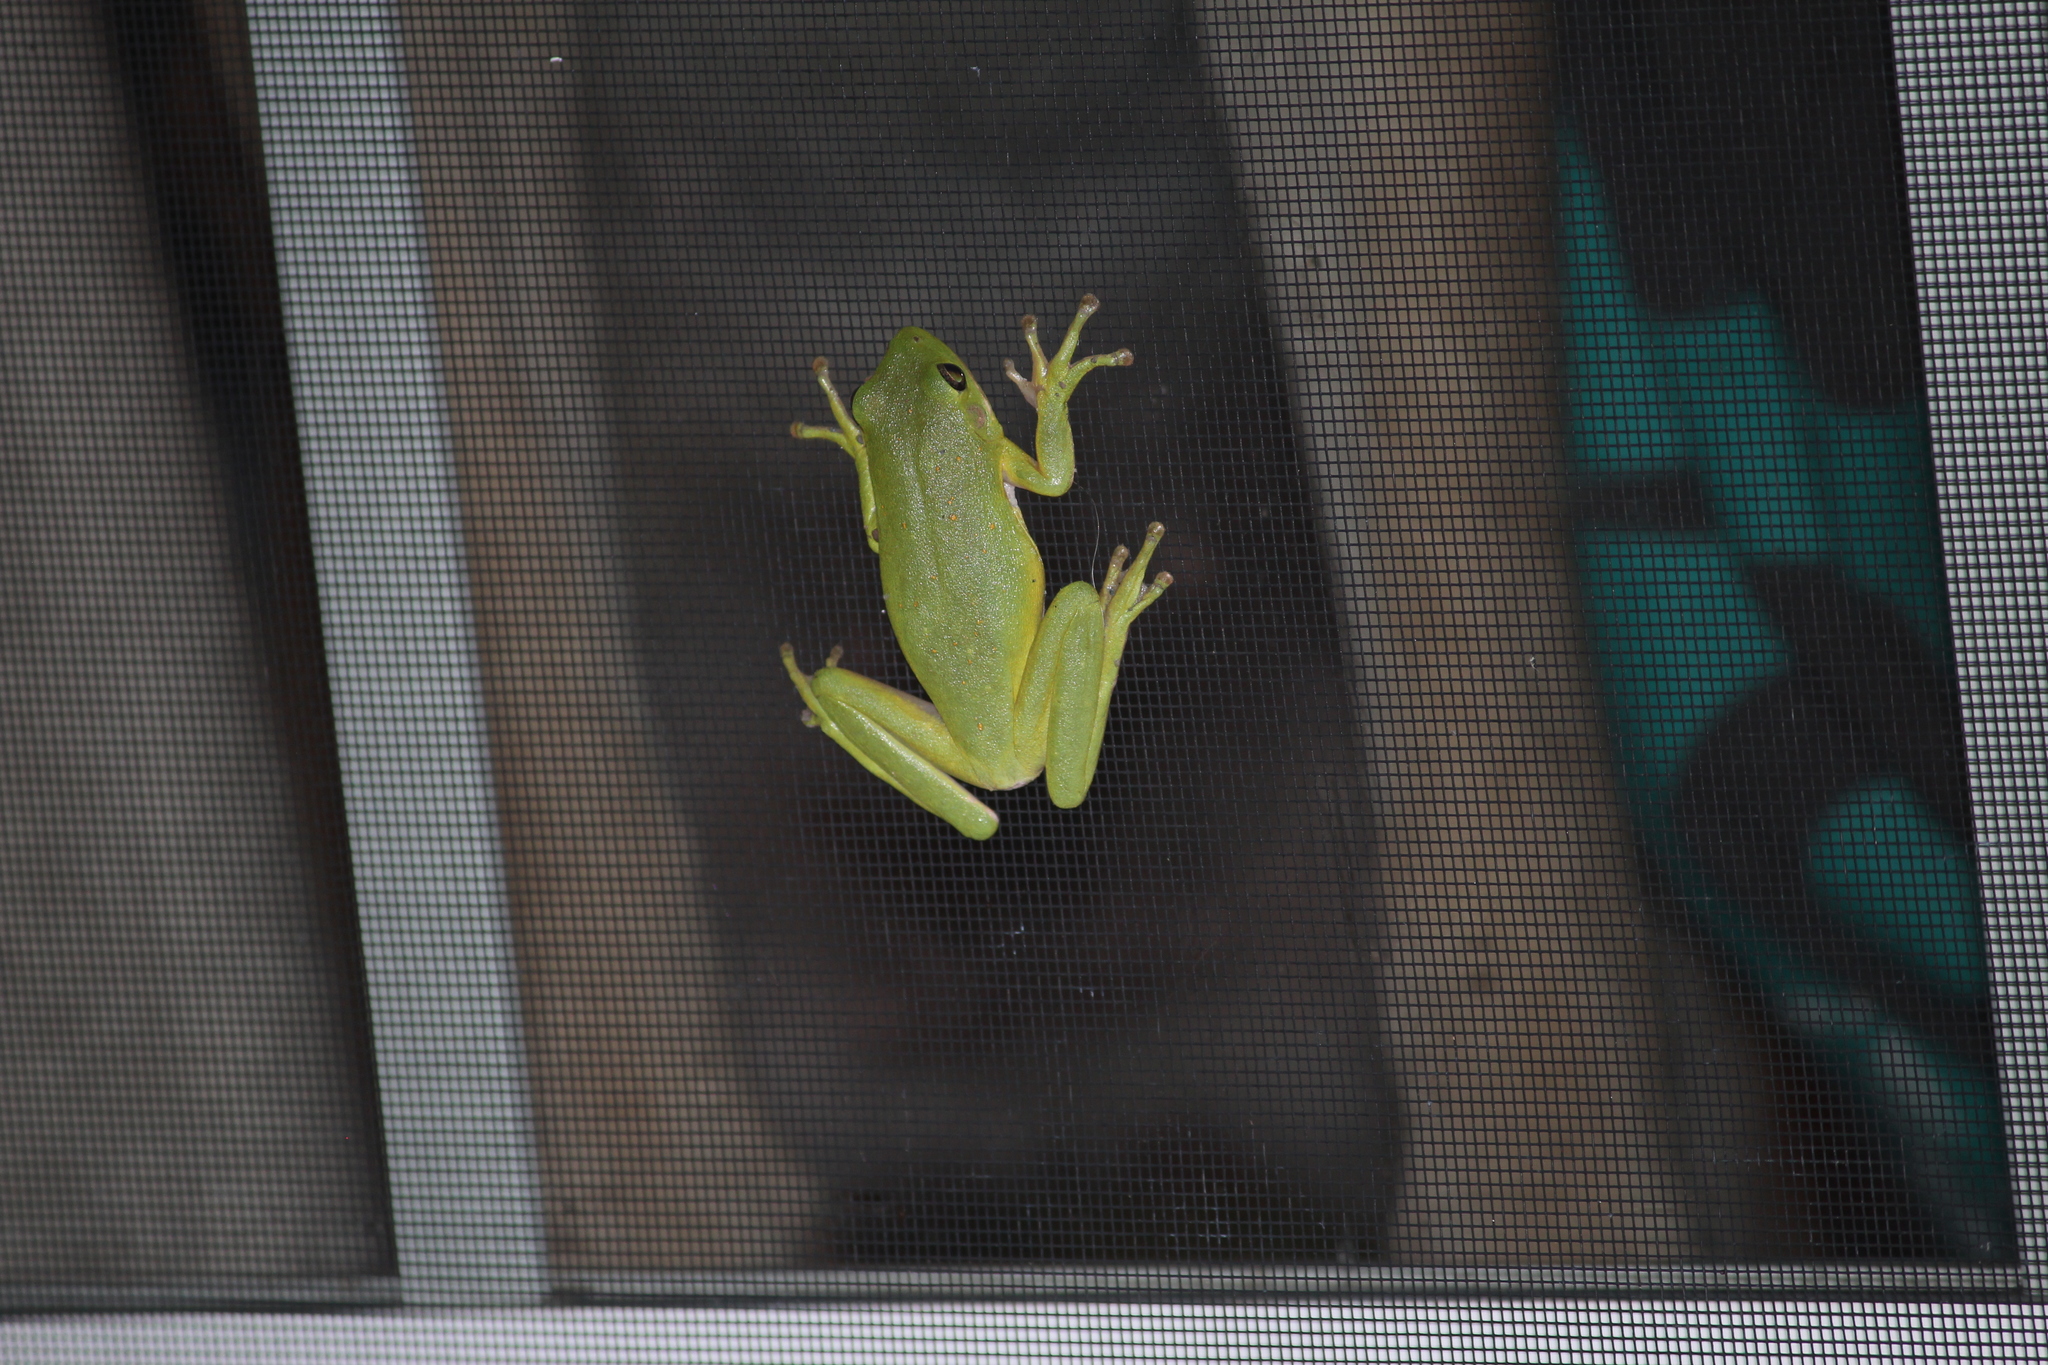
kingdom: Animalia
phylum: Chordata
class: Amphibia
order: Anura
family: Hylidae
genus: Dryophytes
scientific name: Dryophytes cinereus
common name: Green treefrog
